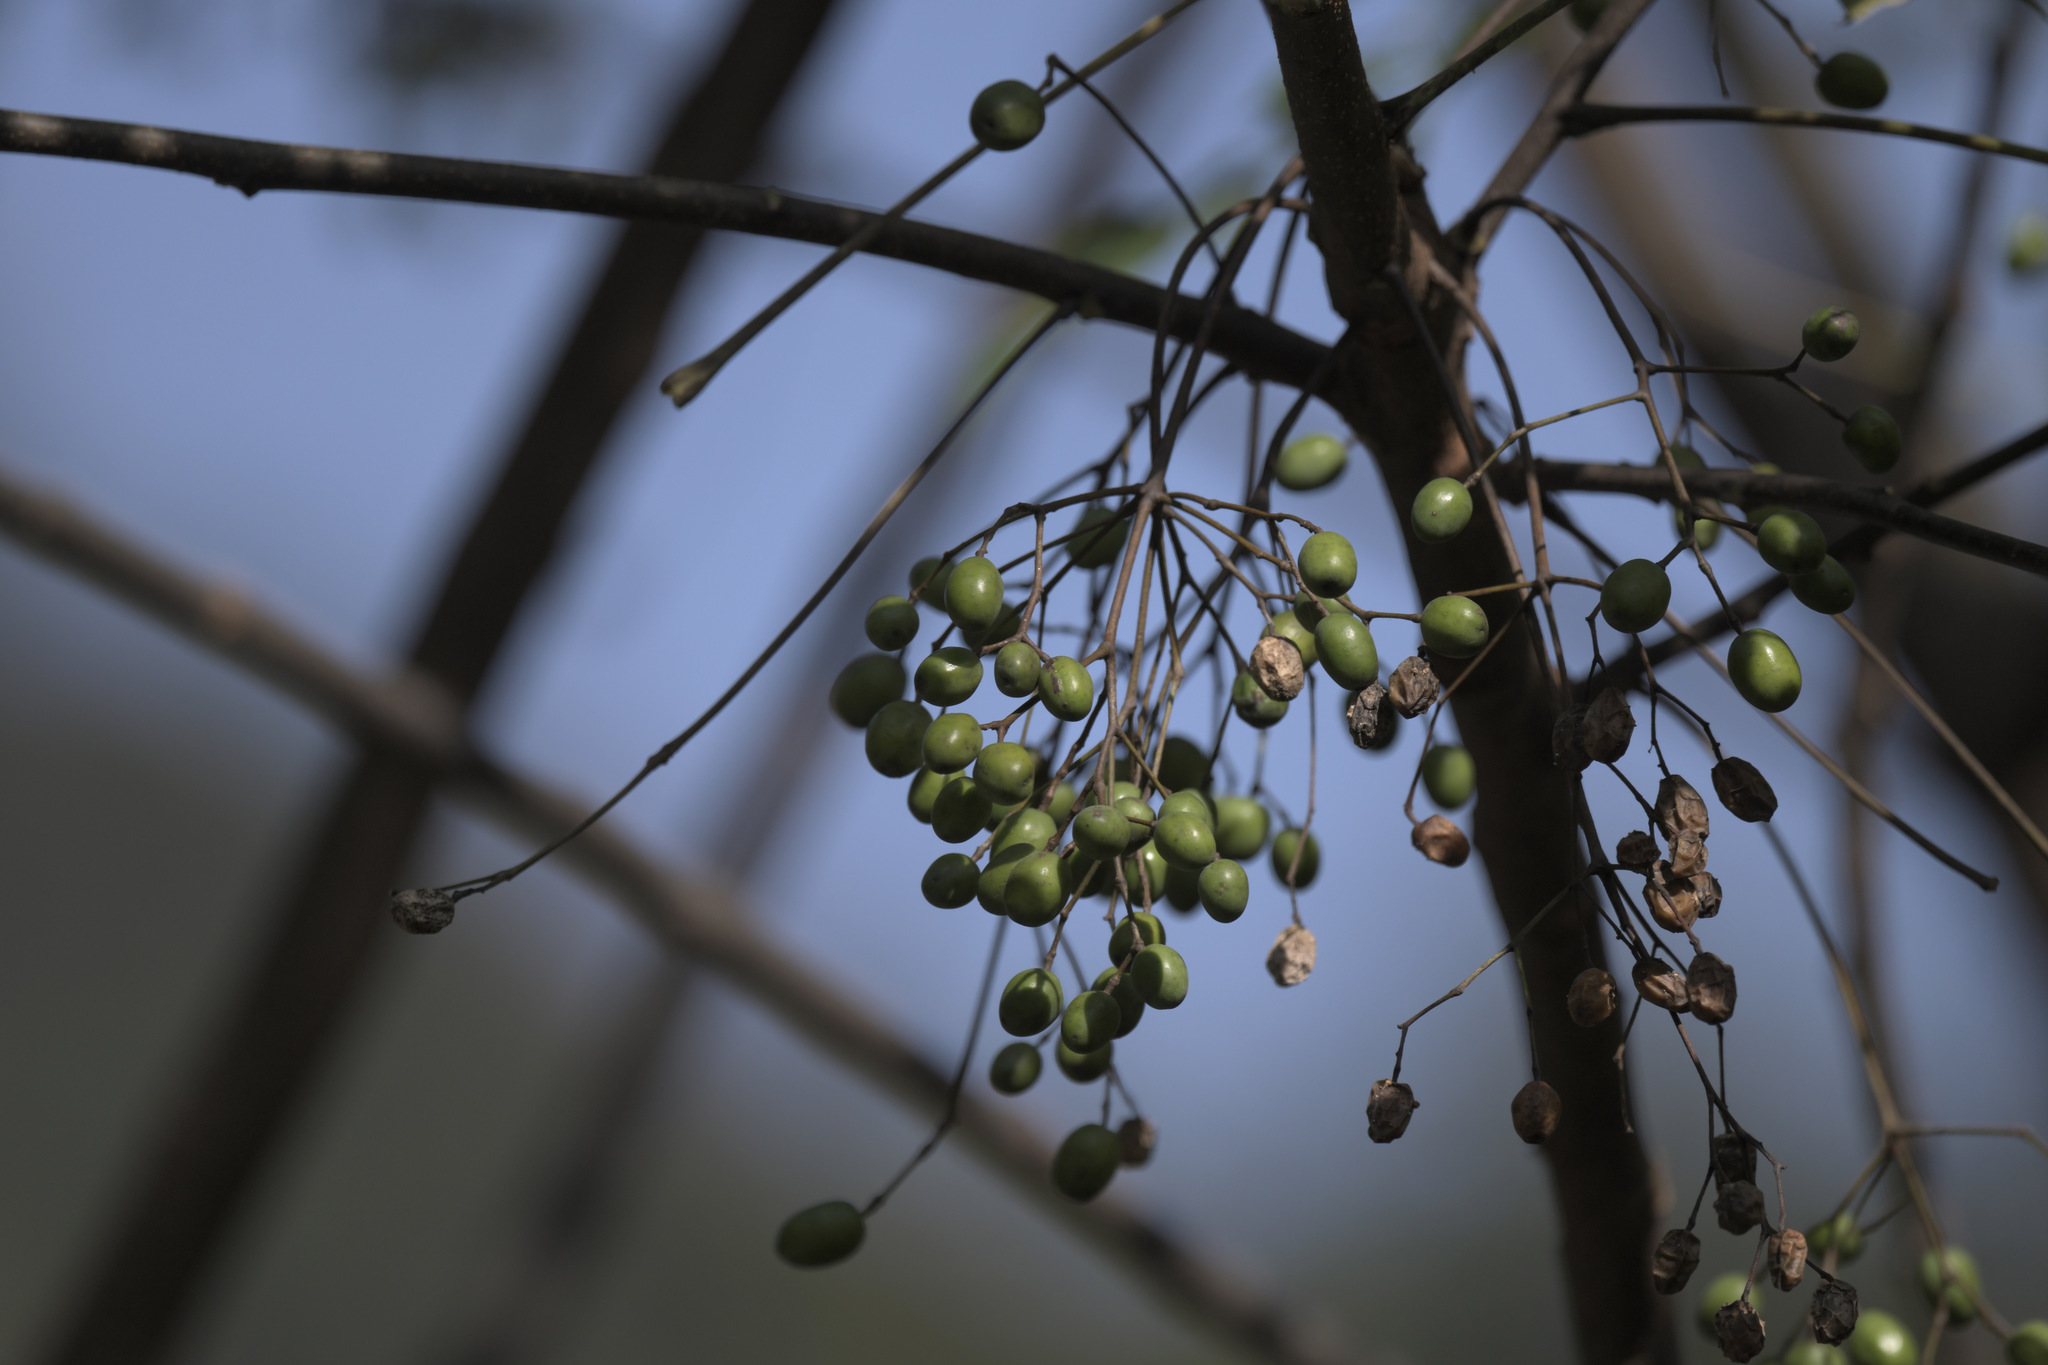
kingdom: Plantae
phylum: Tracheophyta
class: Magnoliopsida
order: Sapindales
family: Meliaceae
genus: Melia
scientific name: Melia azedarach
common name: Chinaberrytree
